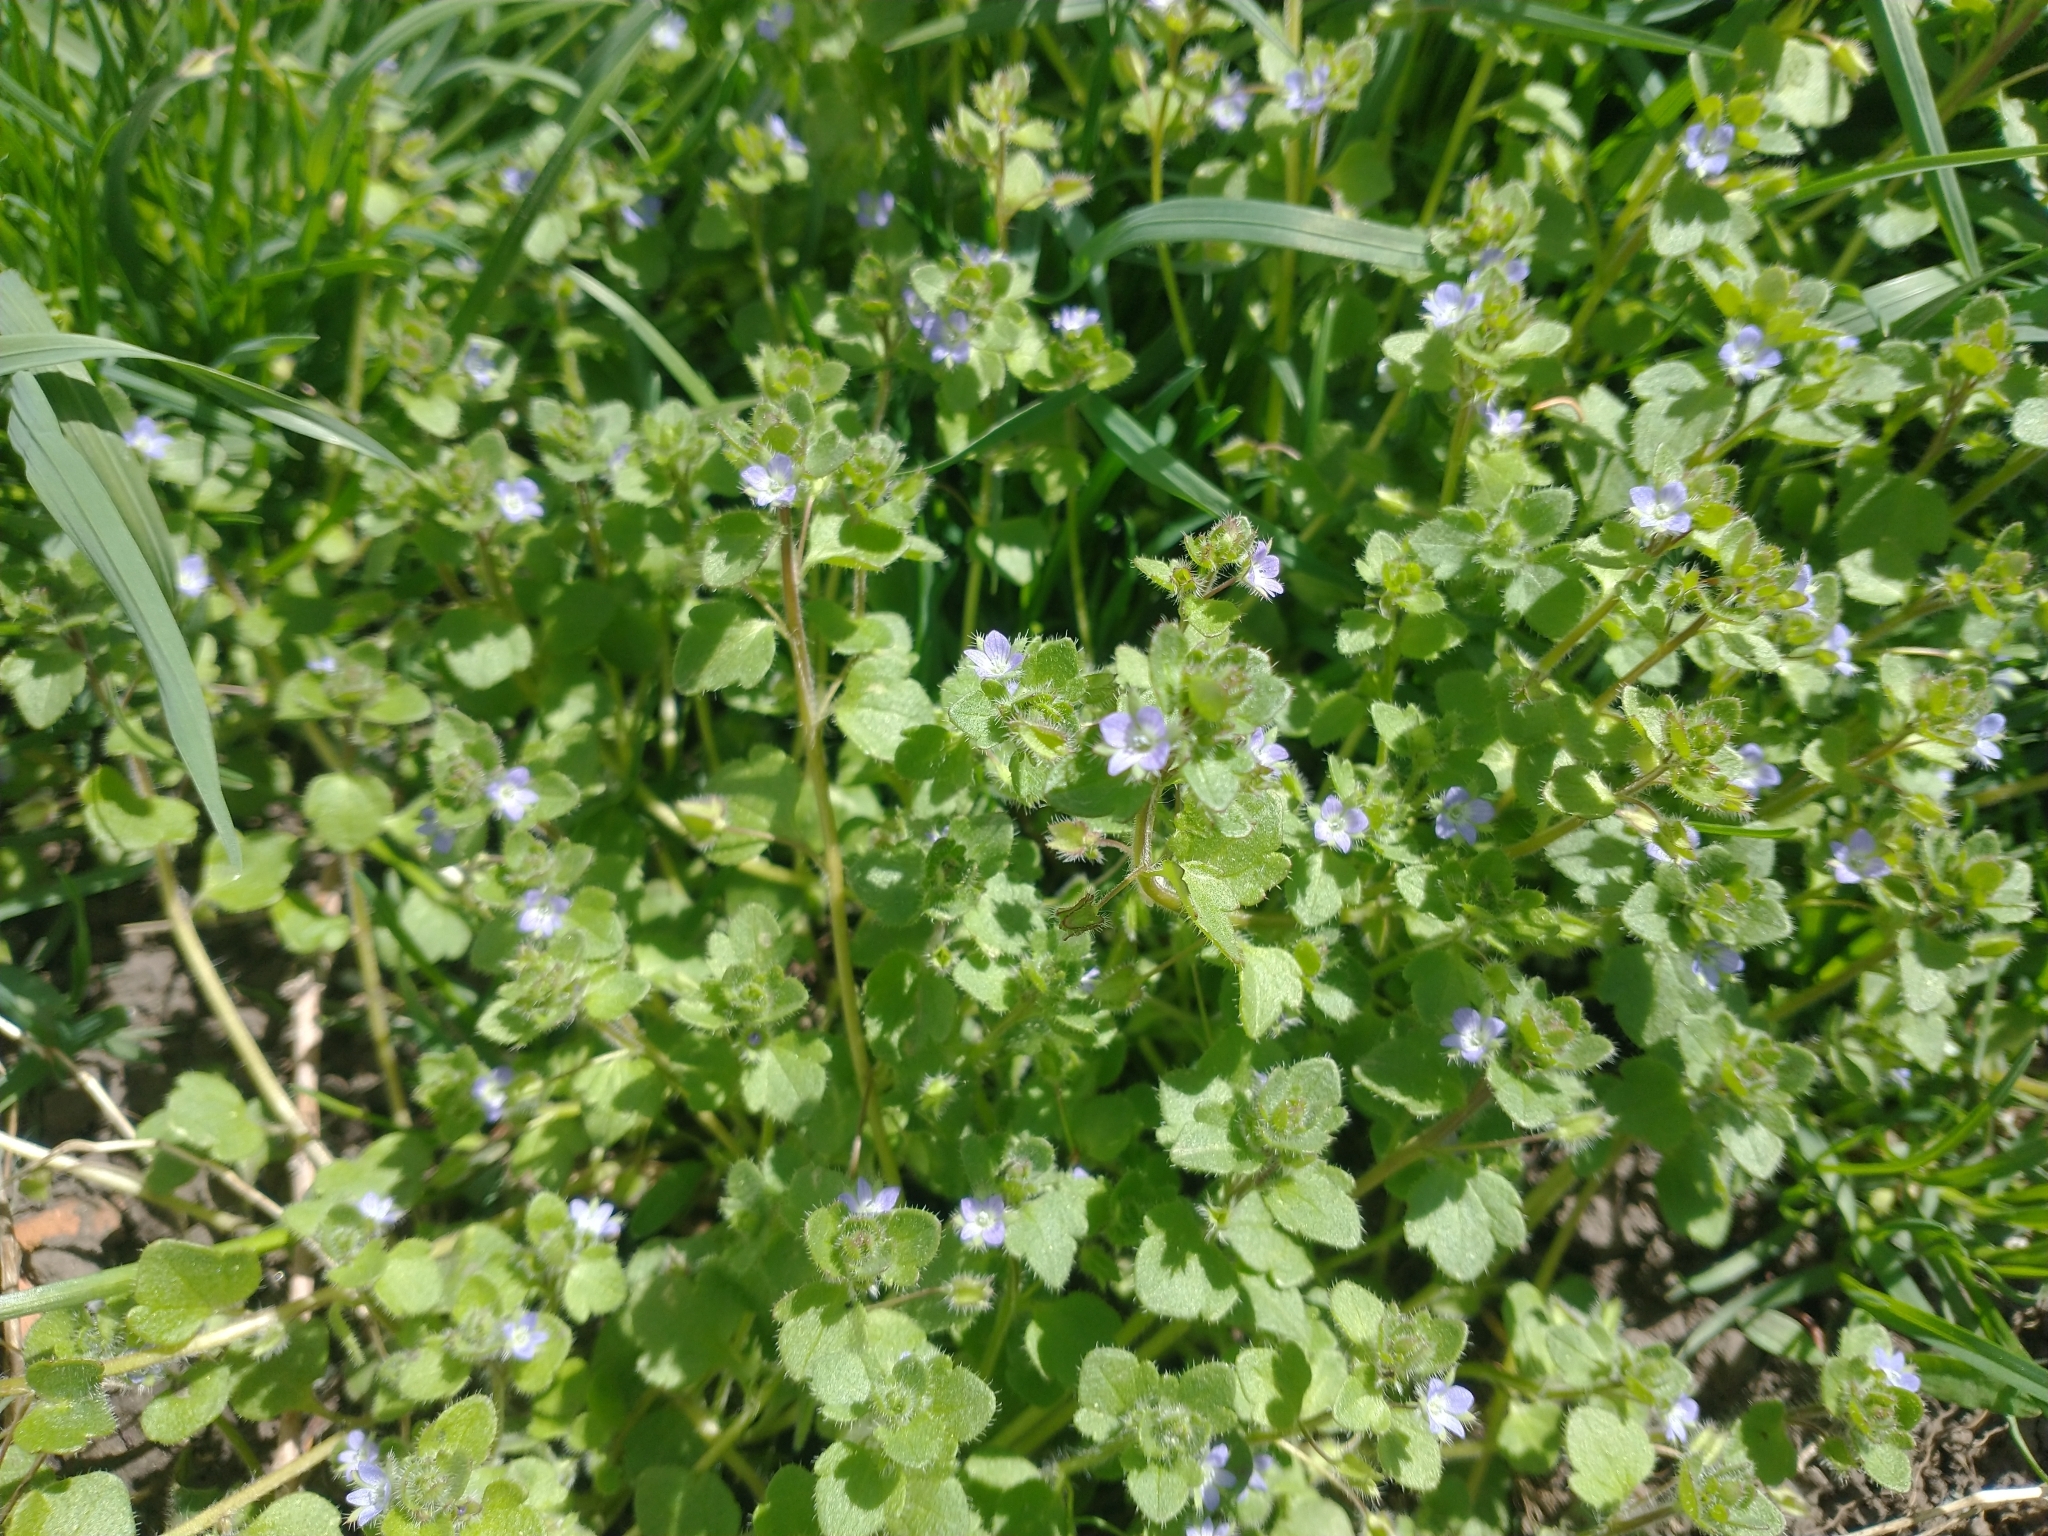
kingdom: Plantae
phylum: Tracheophyta
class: Magnoliopsida
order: Lamiales
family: Plantaginaceae
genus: Veronica
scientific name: Veronica hederifolia
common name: Ivy-leaved speedwell
